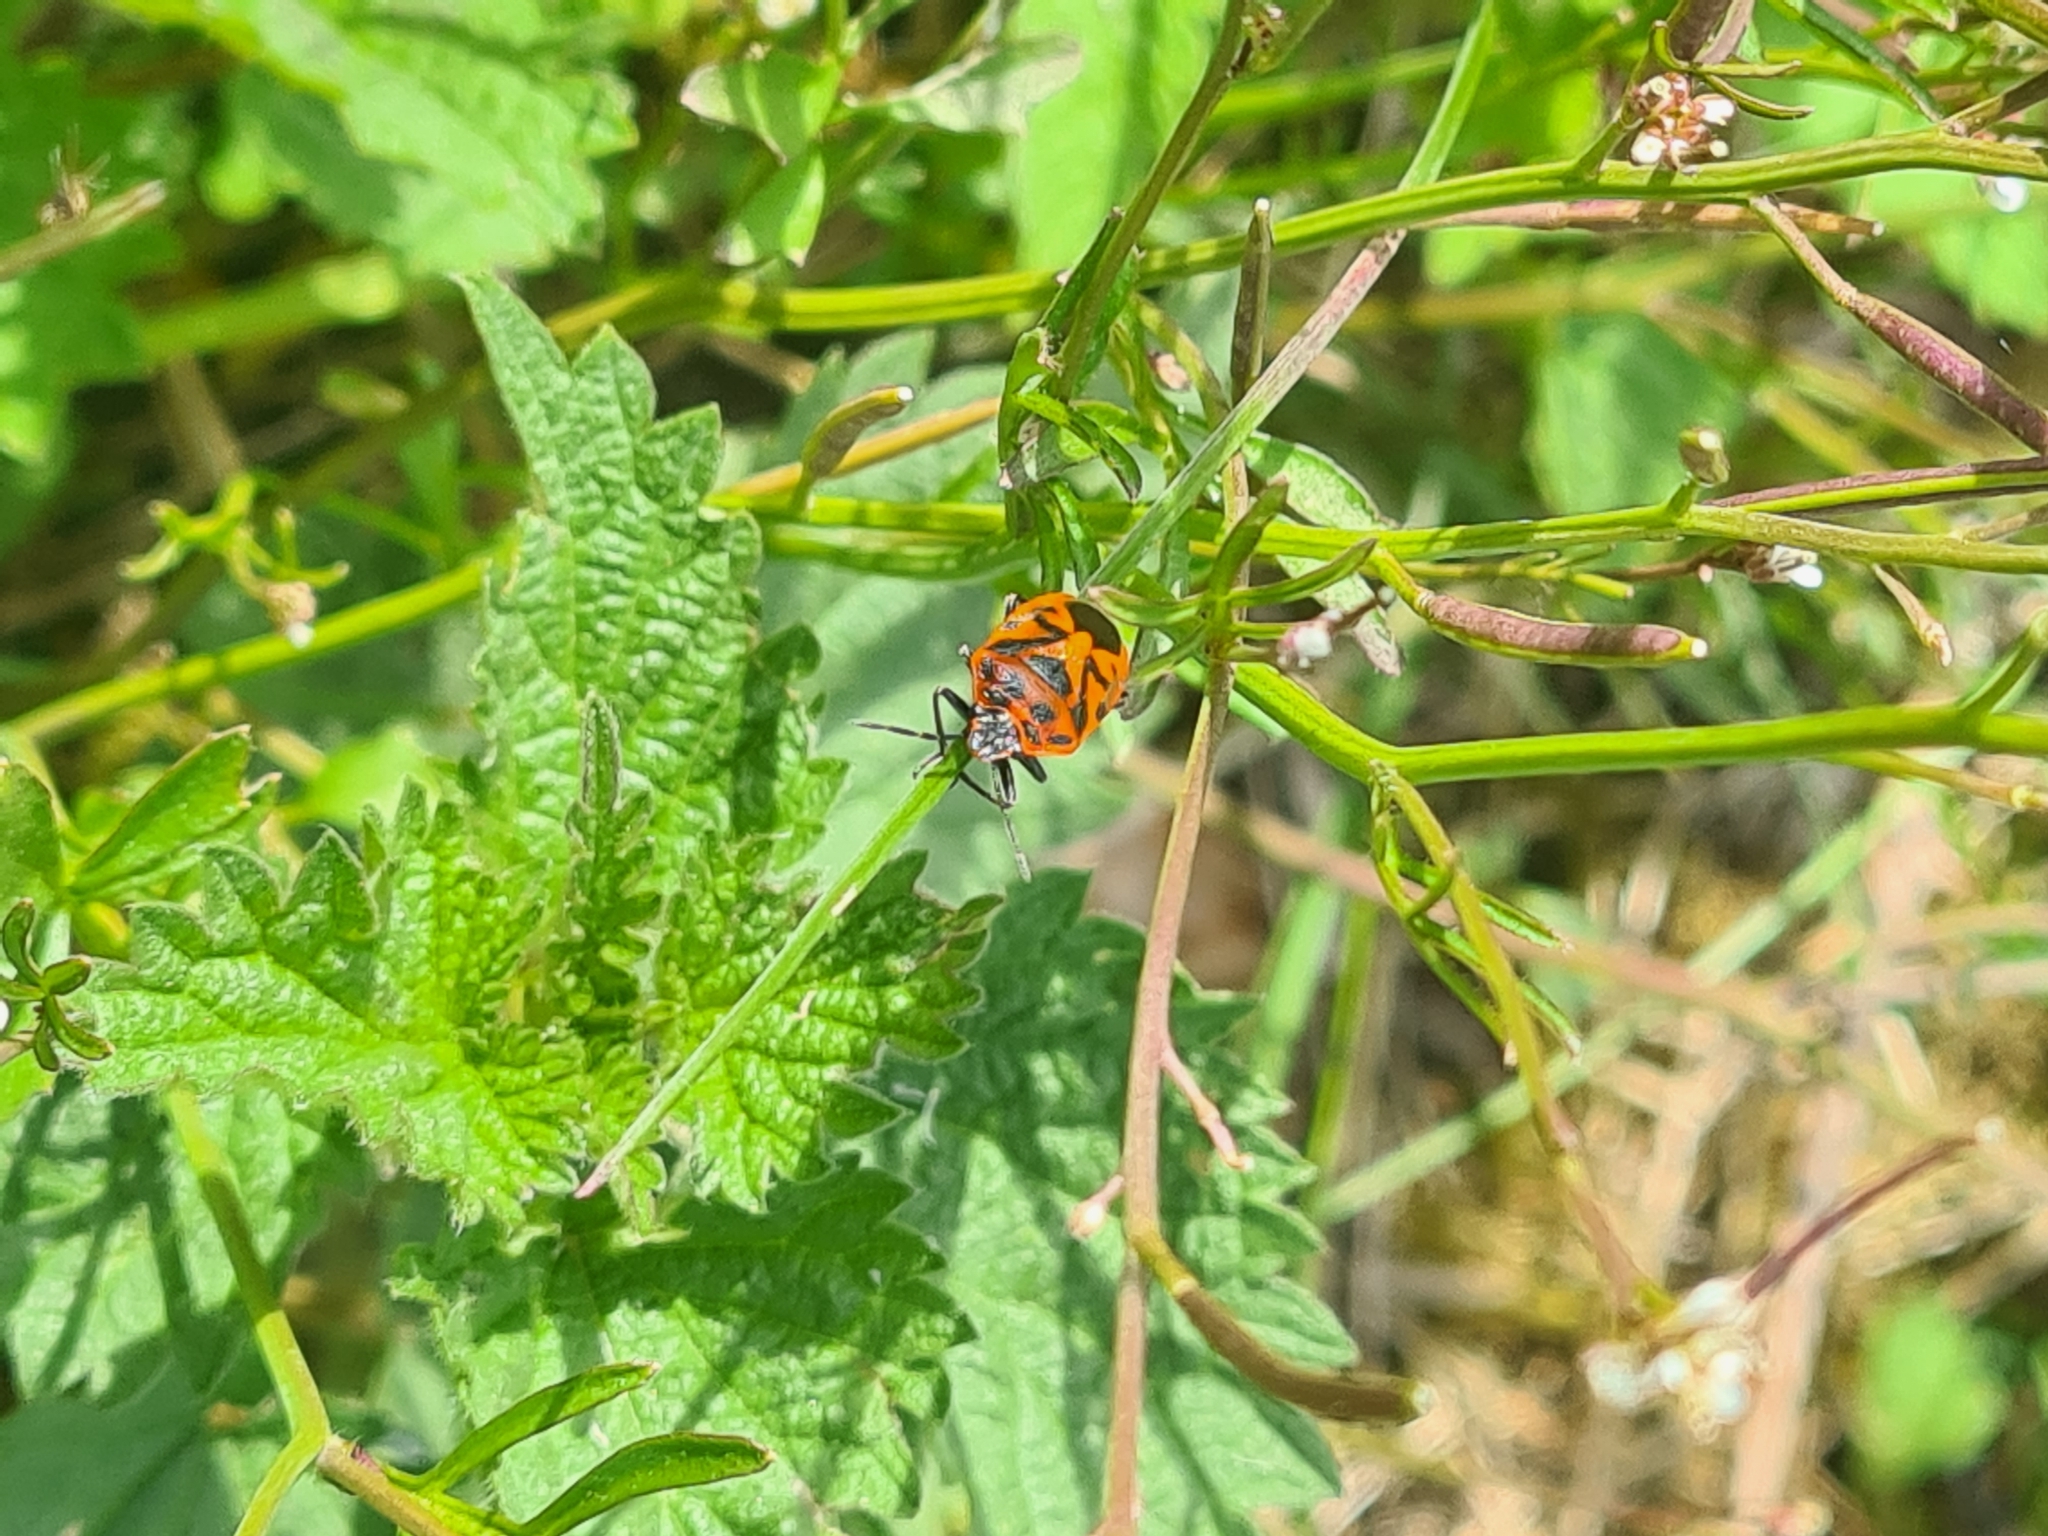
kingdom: Animalia
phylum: Arthropoda
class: Insecta
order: Hemiptera
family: Pentatomidae
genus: Eurydema
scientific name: Eurydema ornata
